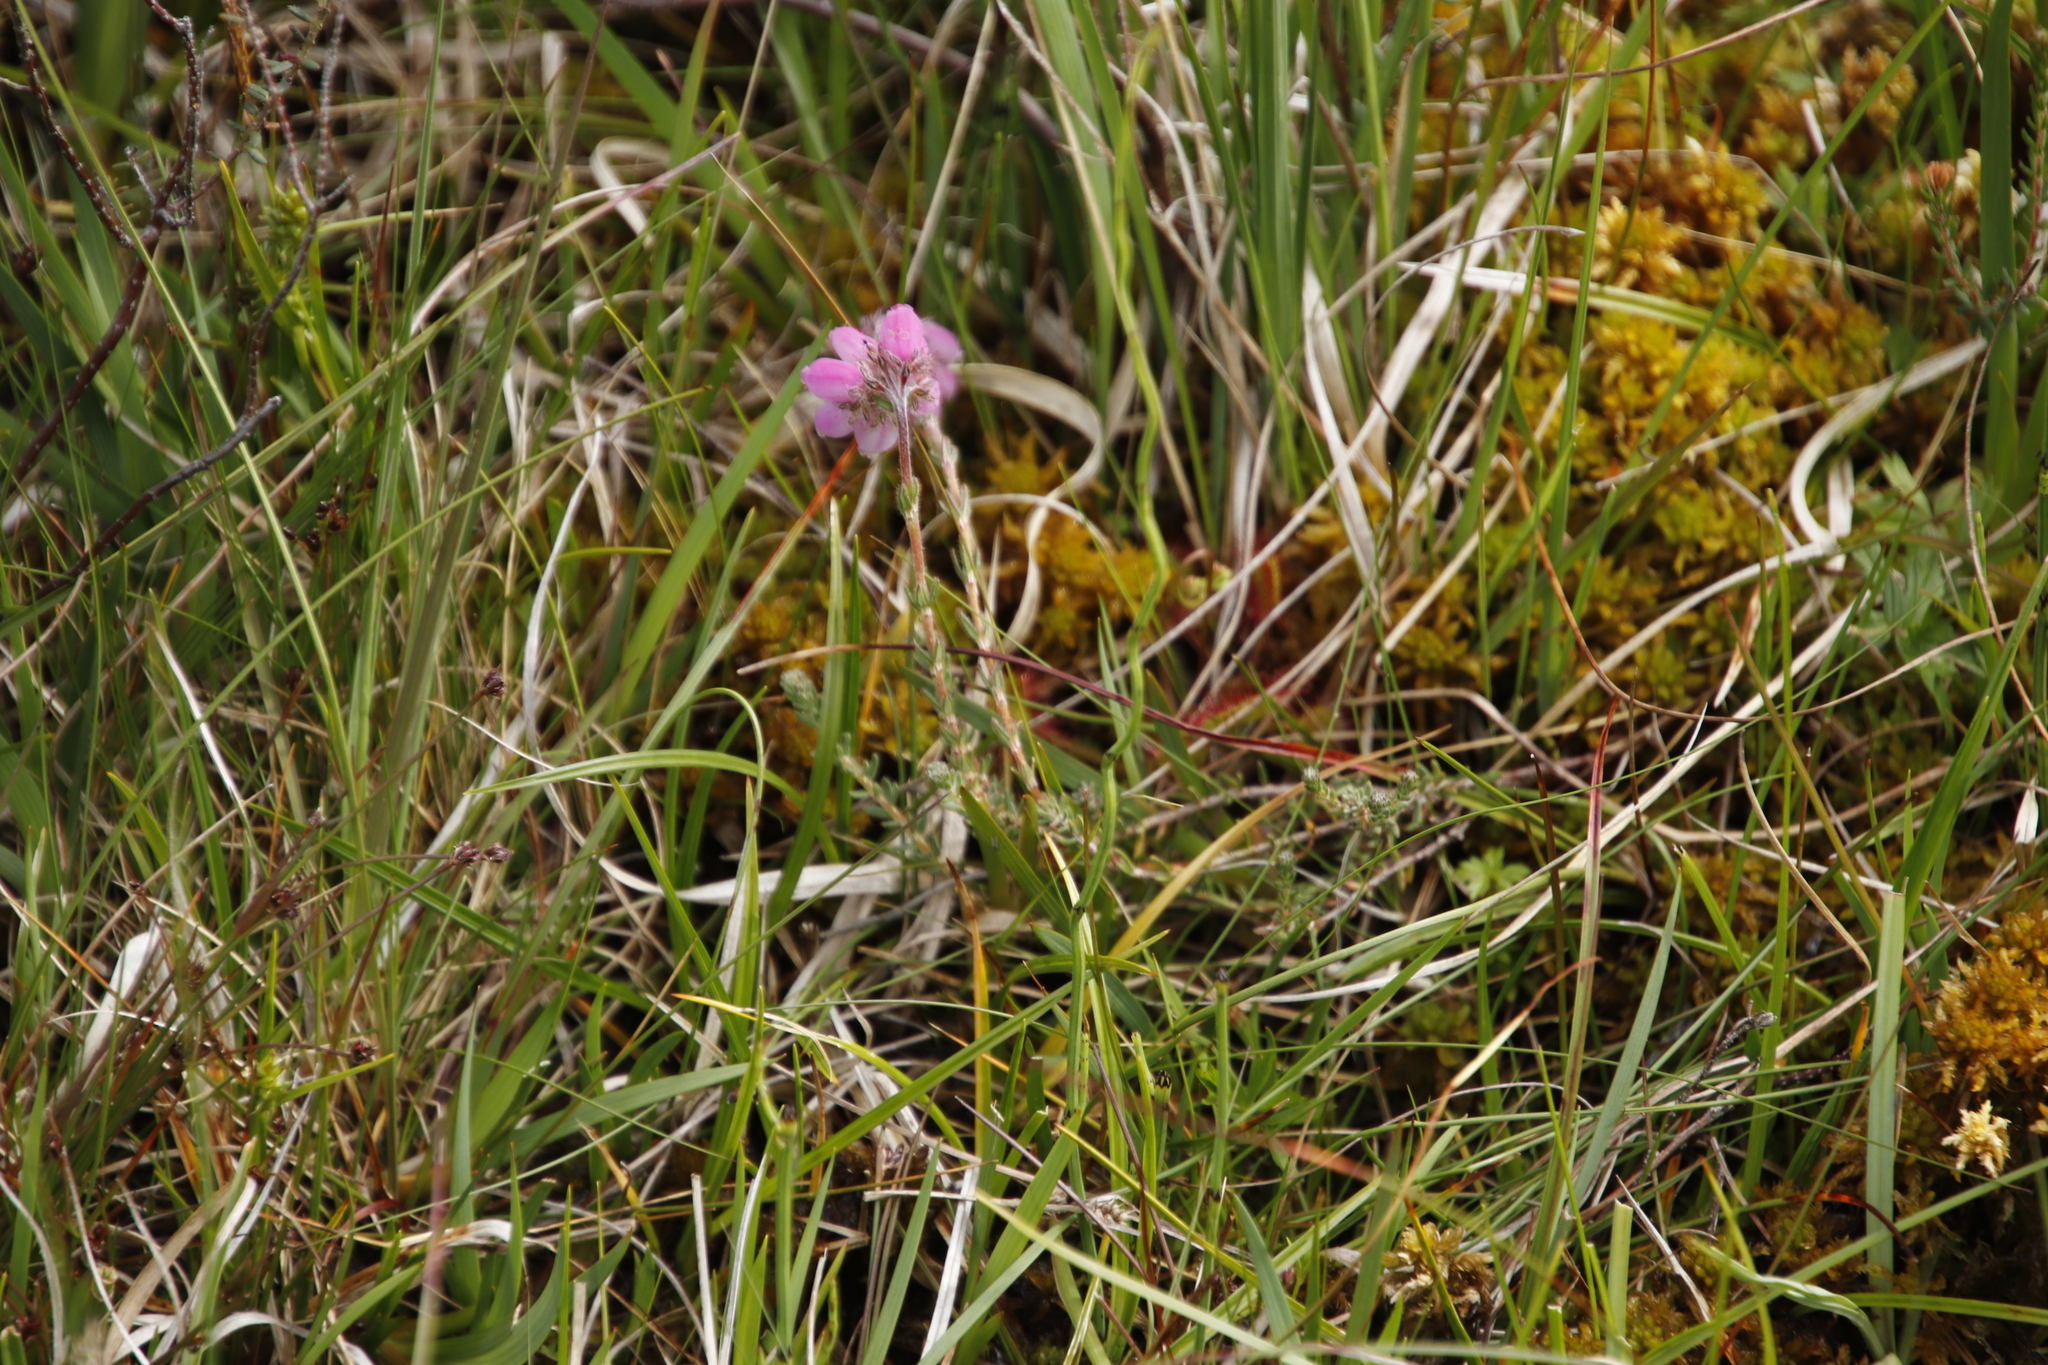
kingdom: Plantae
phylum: Tracheophyta
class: Magnoliopsida
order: Ericales
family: Ericaceae
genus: Erica
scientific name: Erica tetralix
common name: Cross-leaved heath
